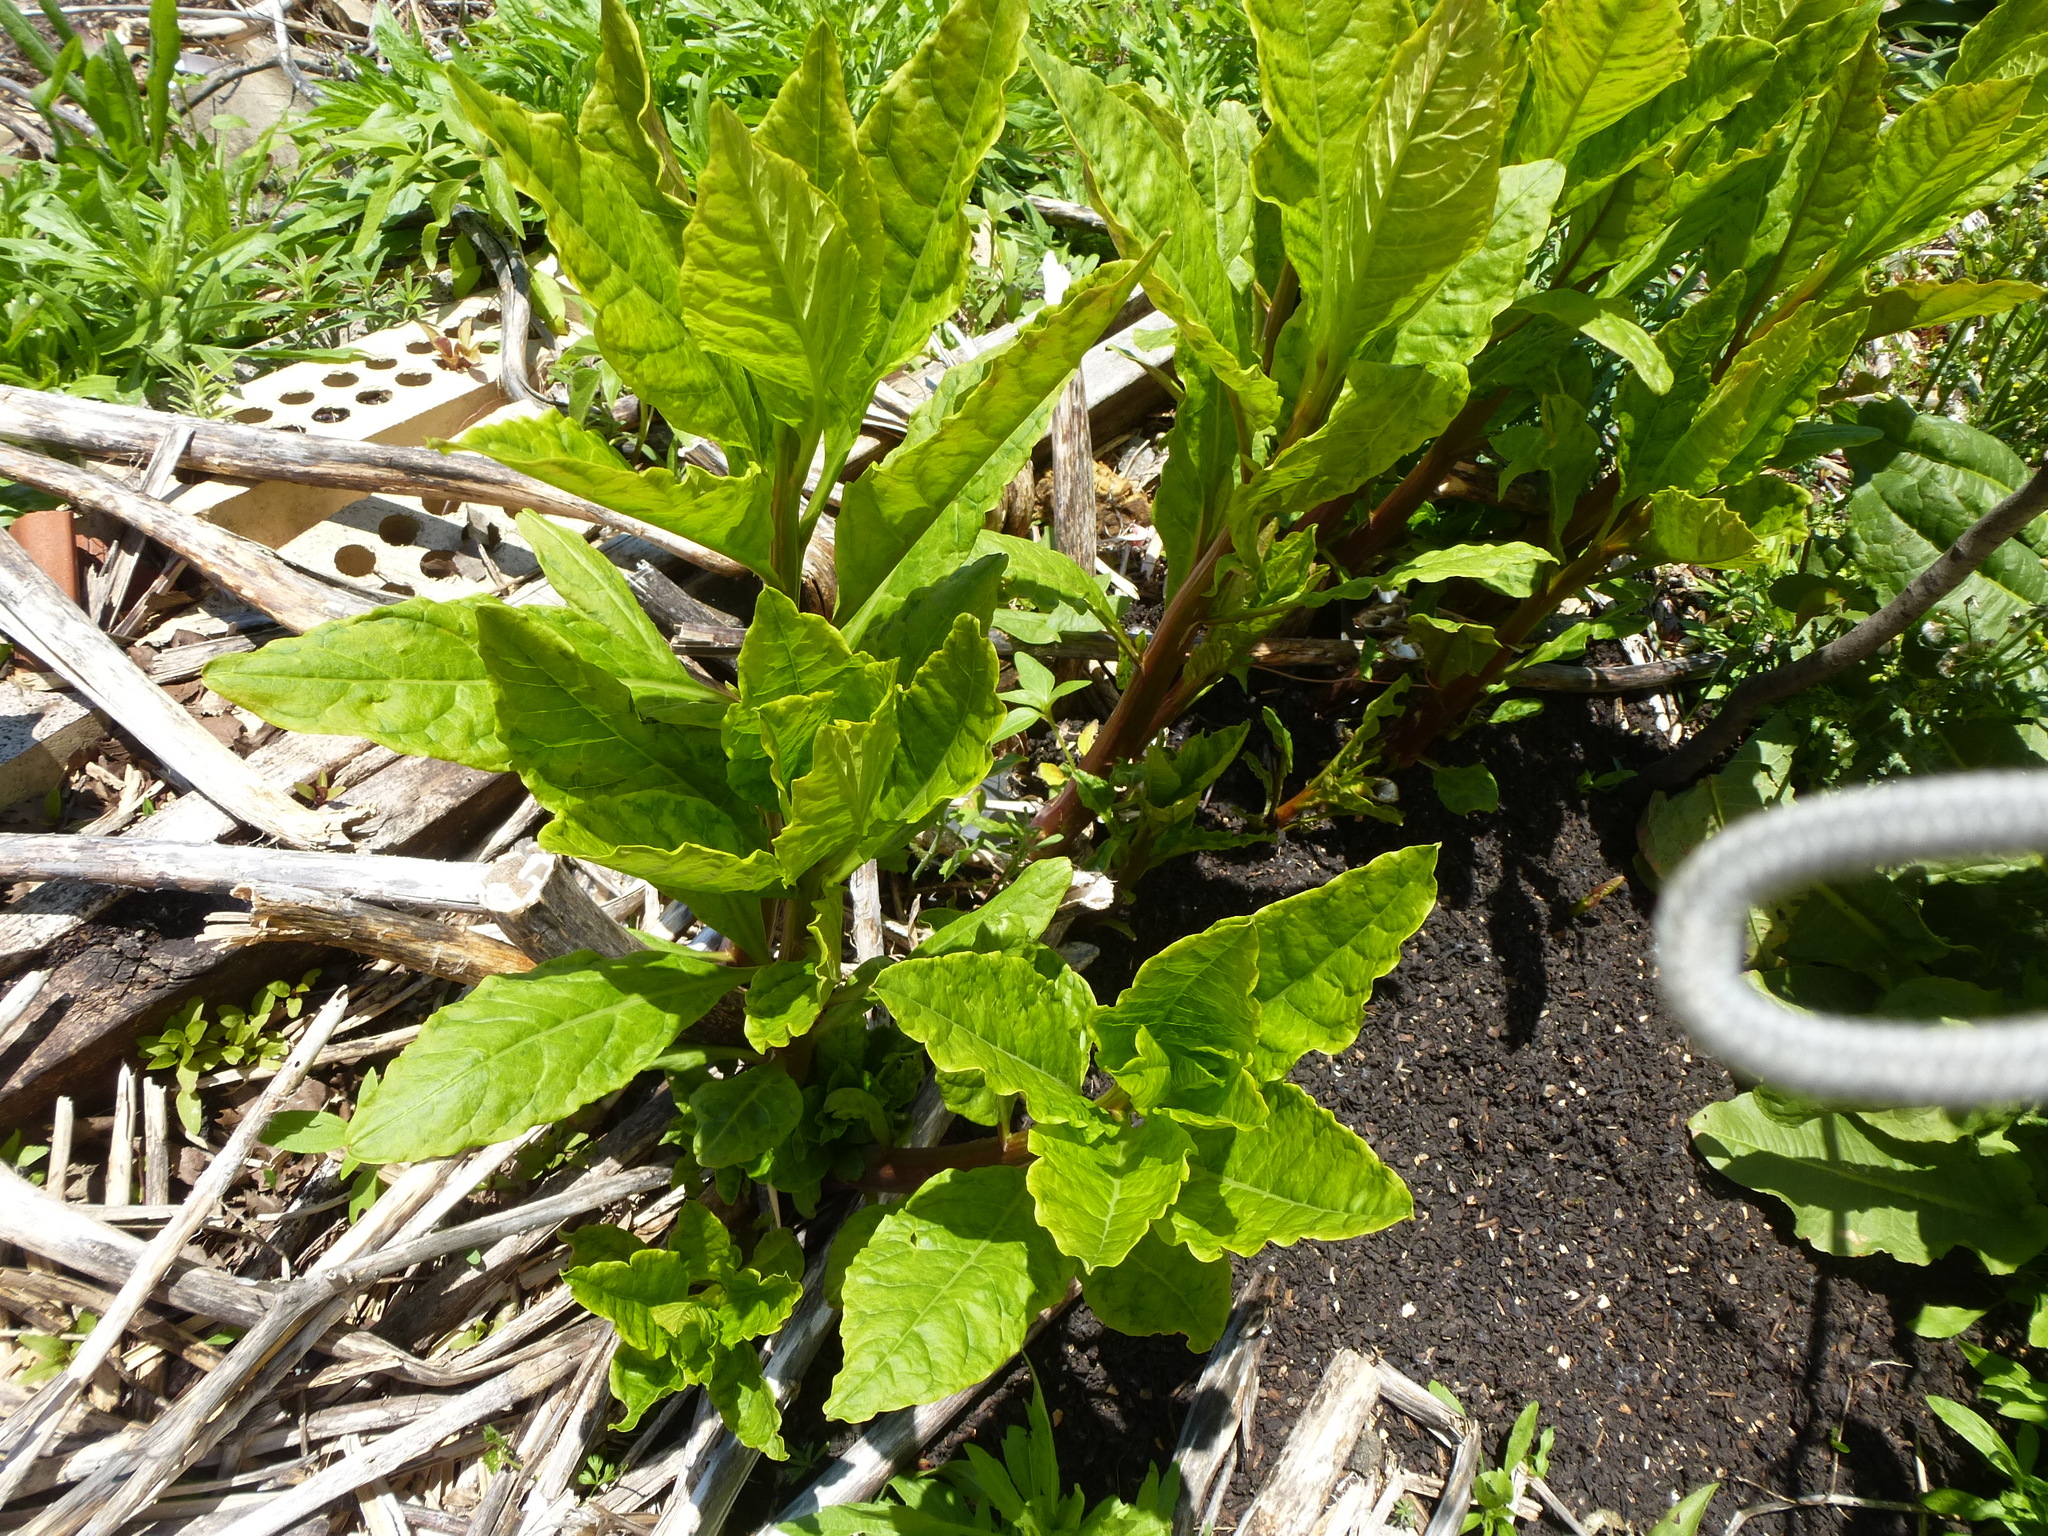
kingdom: Plantae
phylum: Tracheophyta
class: Magnoliopsida
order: Caryophyllales
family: Phytolaccaceae
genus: Phytolacca
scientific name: Phytolacca americana
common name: American pokeweed
